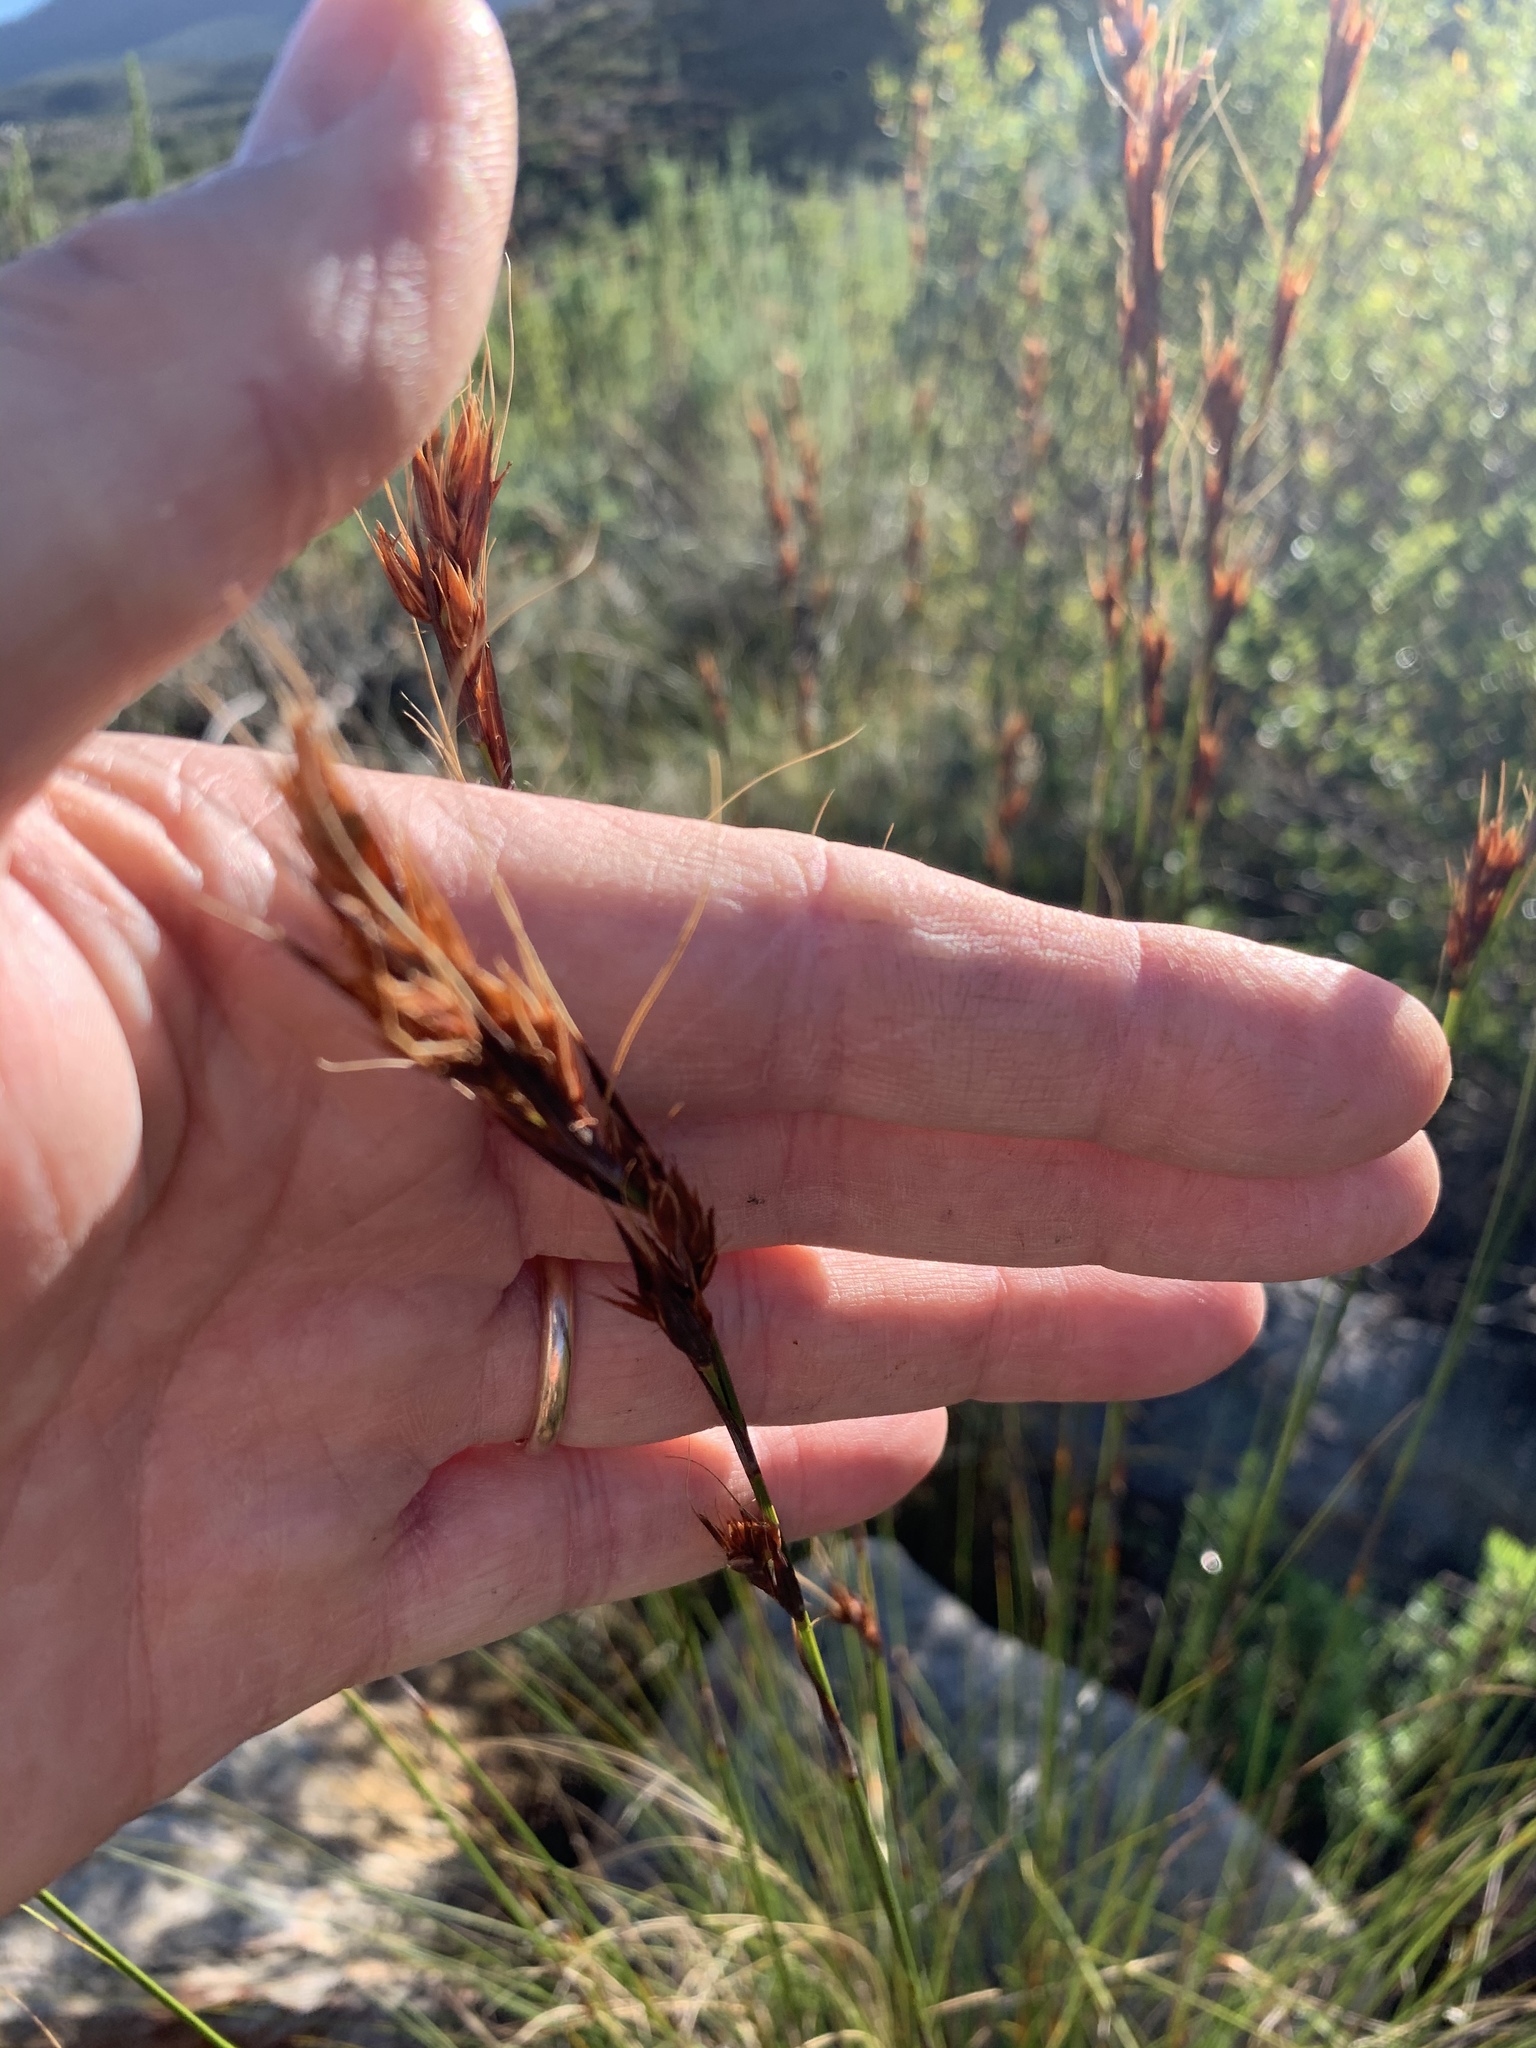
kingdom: Plantae
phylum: Tracheophyta
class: Liliopsida
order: Poales
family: Cyperaceae
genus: Tetraria
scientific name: Tetraria ustulata
